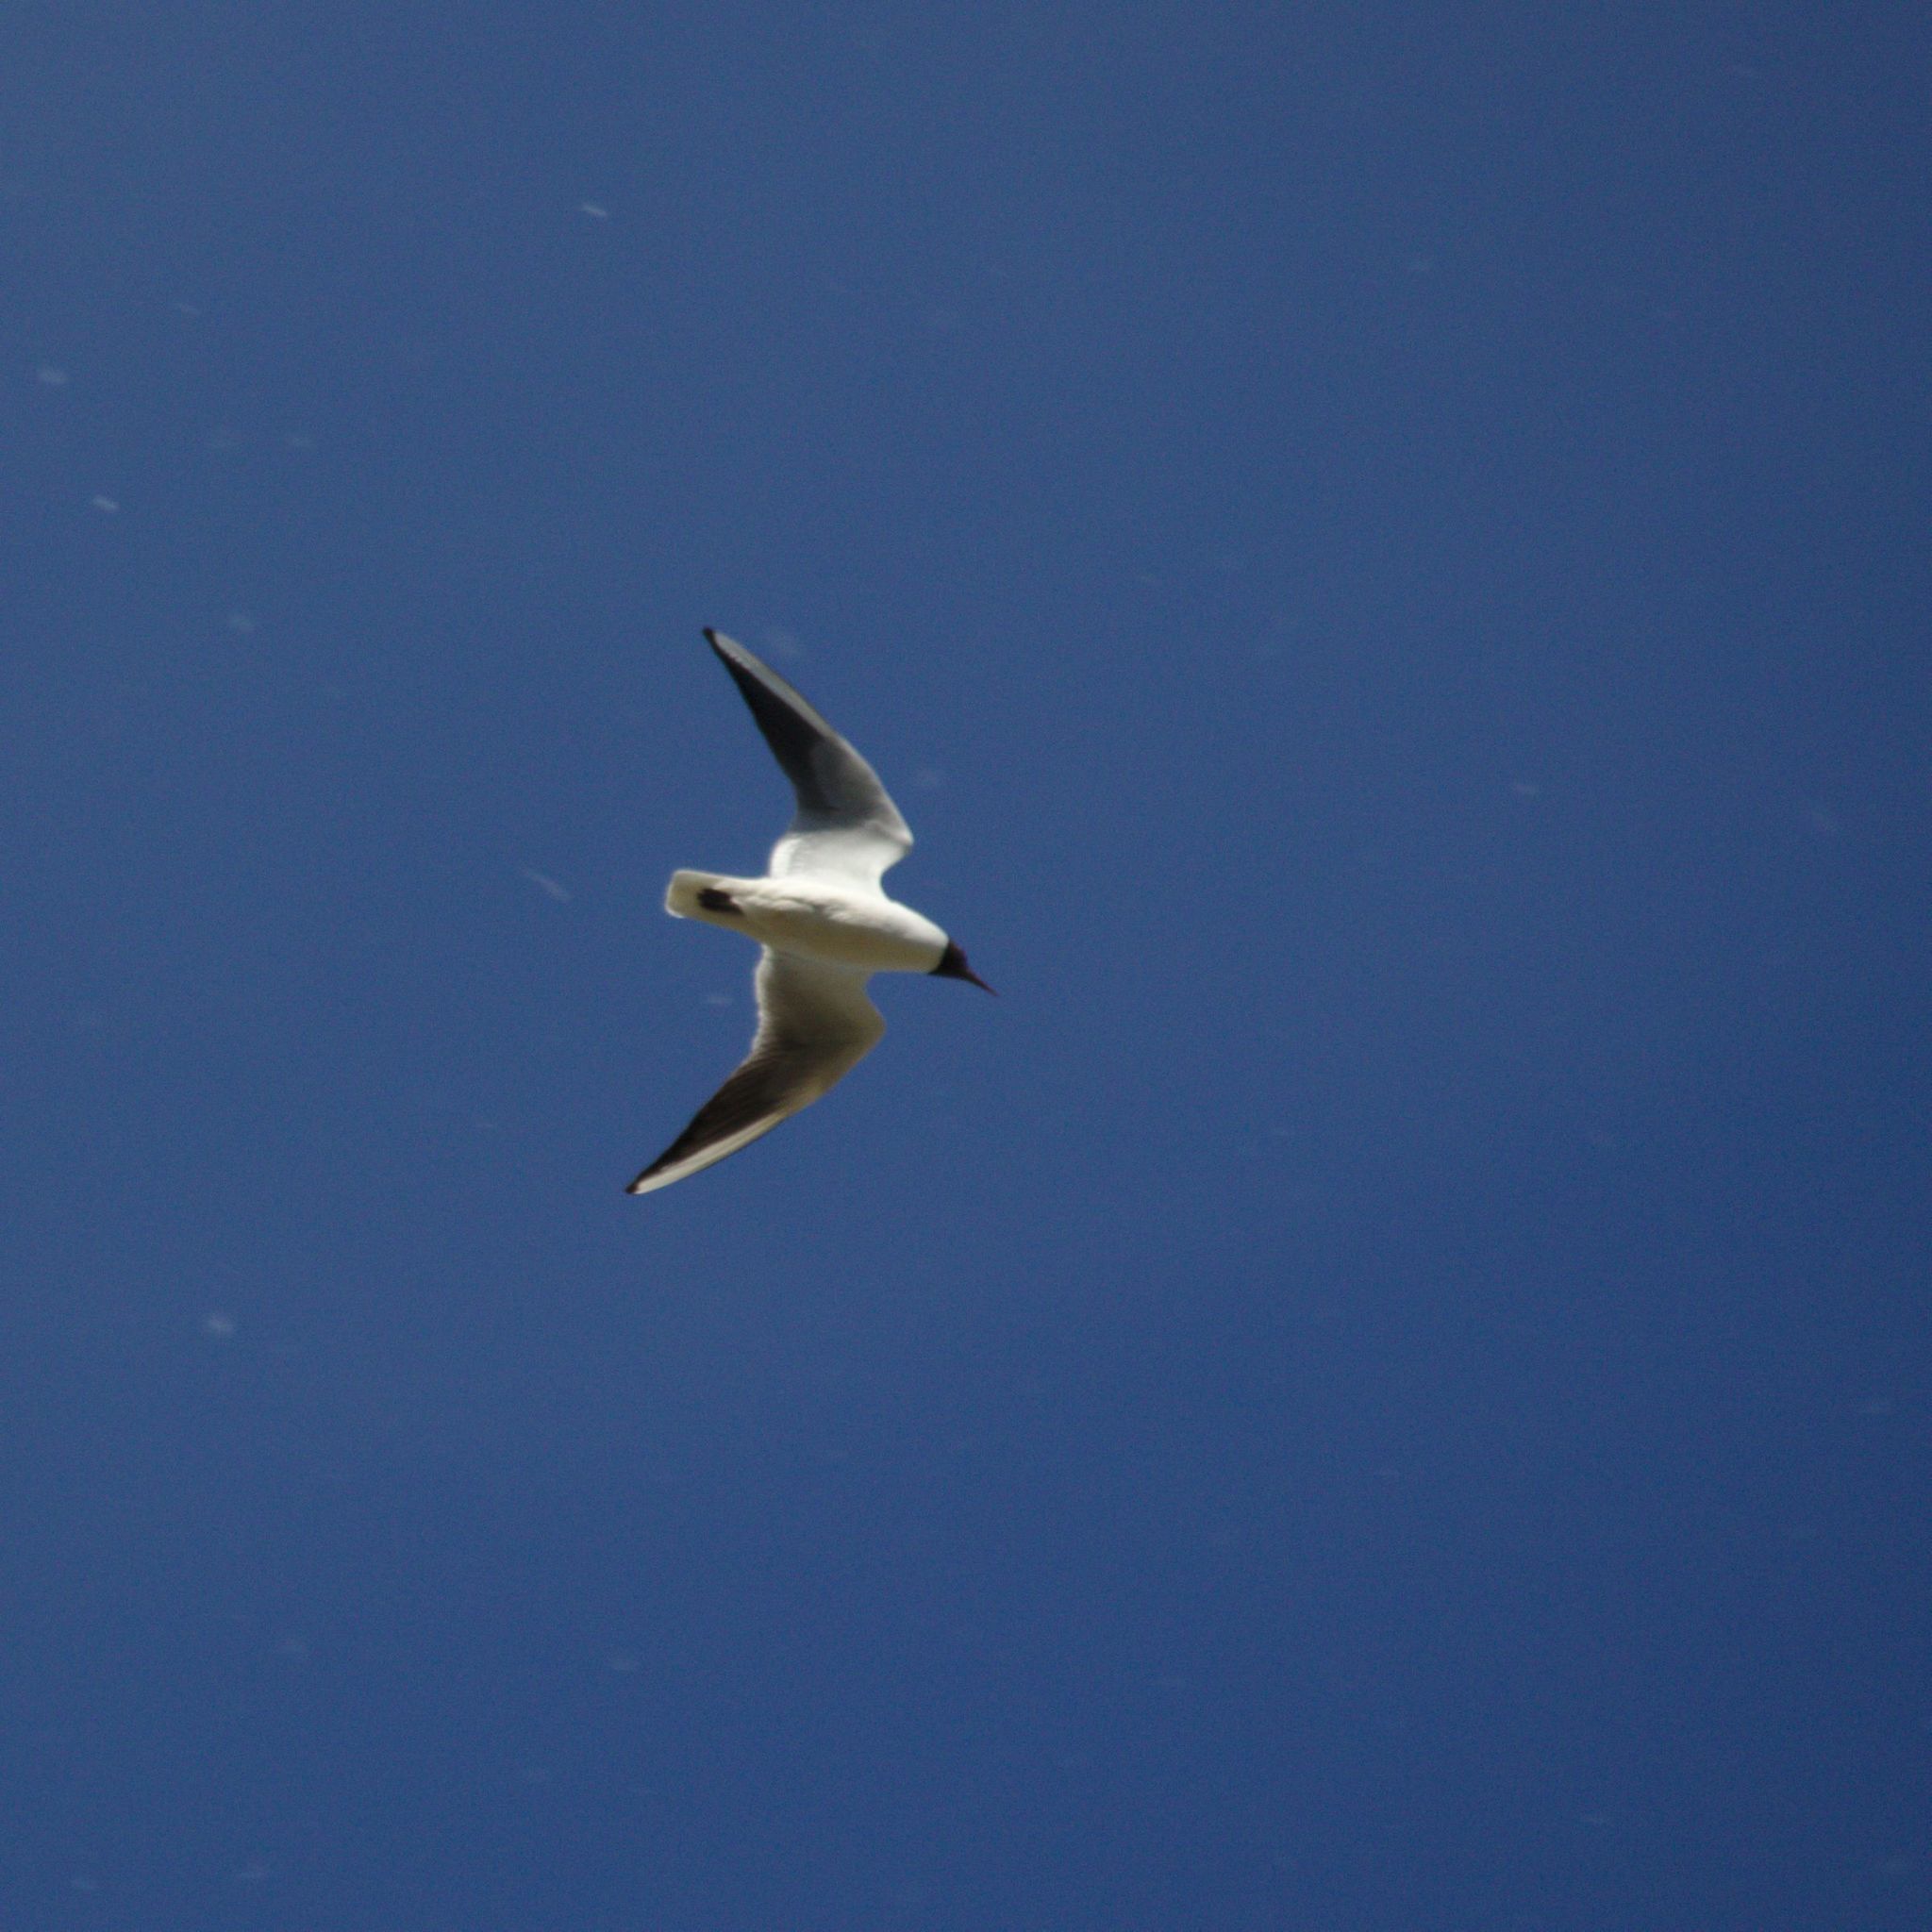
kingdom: Animalia
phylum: Chordata
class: Aves
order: Charadriiformes
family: Laridae
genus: Chroicocephalus
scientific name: Chroicocephalus ridibundus
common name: Black-headed gull
